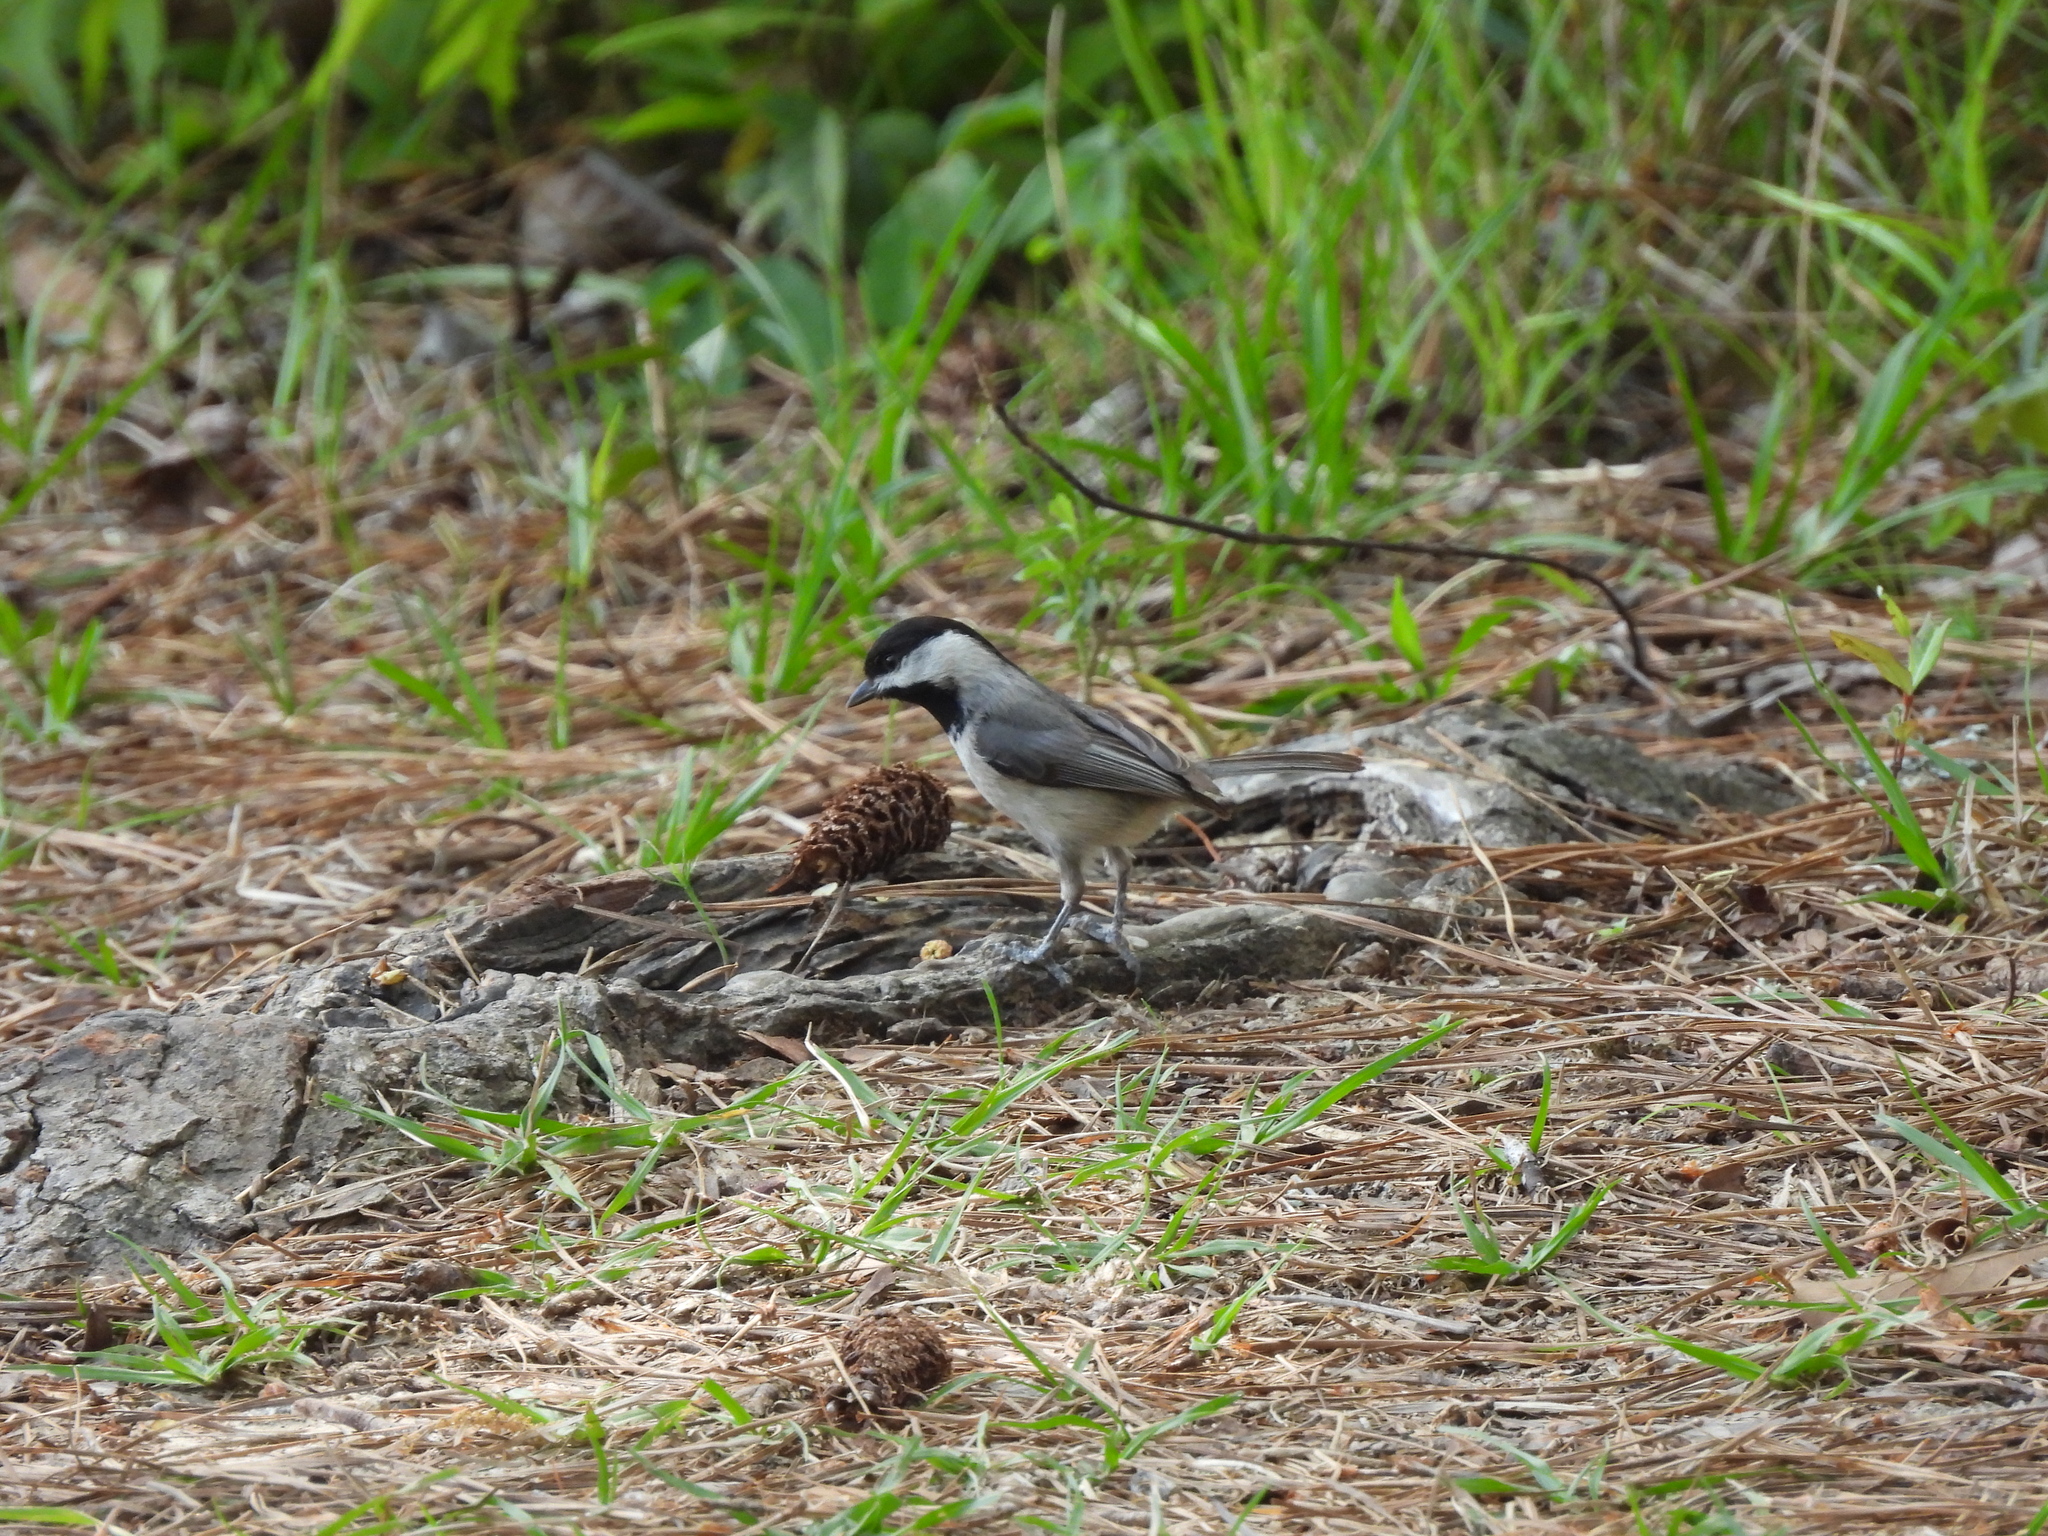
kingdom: Animalia
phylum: Chordata
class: Aves
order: Passeriformes
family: Paridae
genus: Poecile
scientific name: Poecile carolinensis
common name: Carolina chickadee
